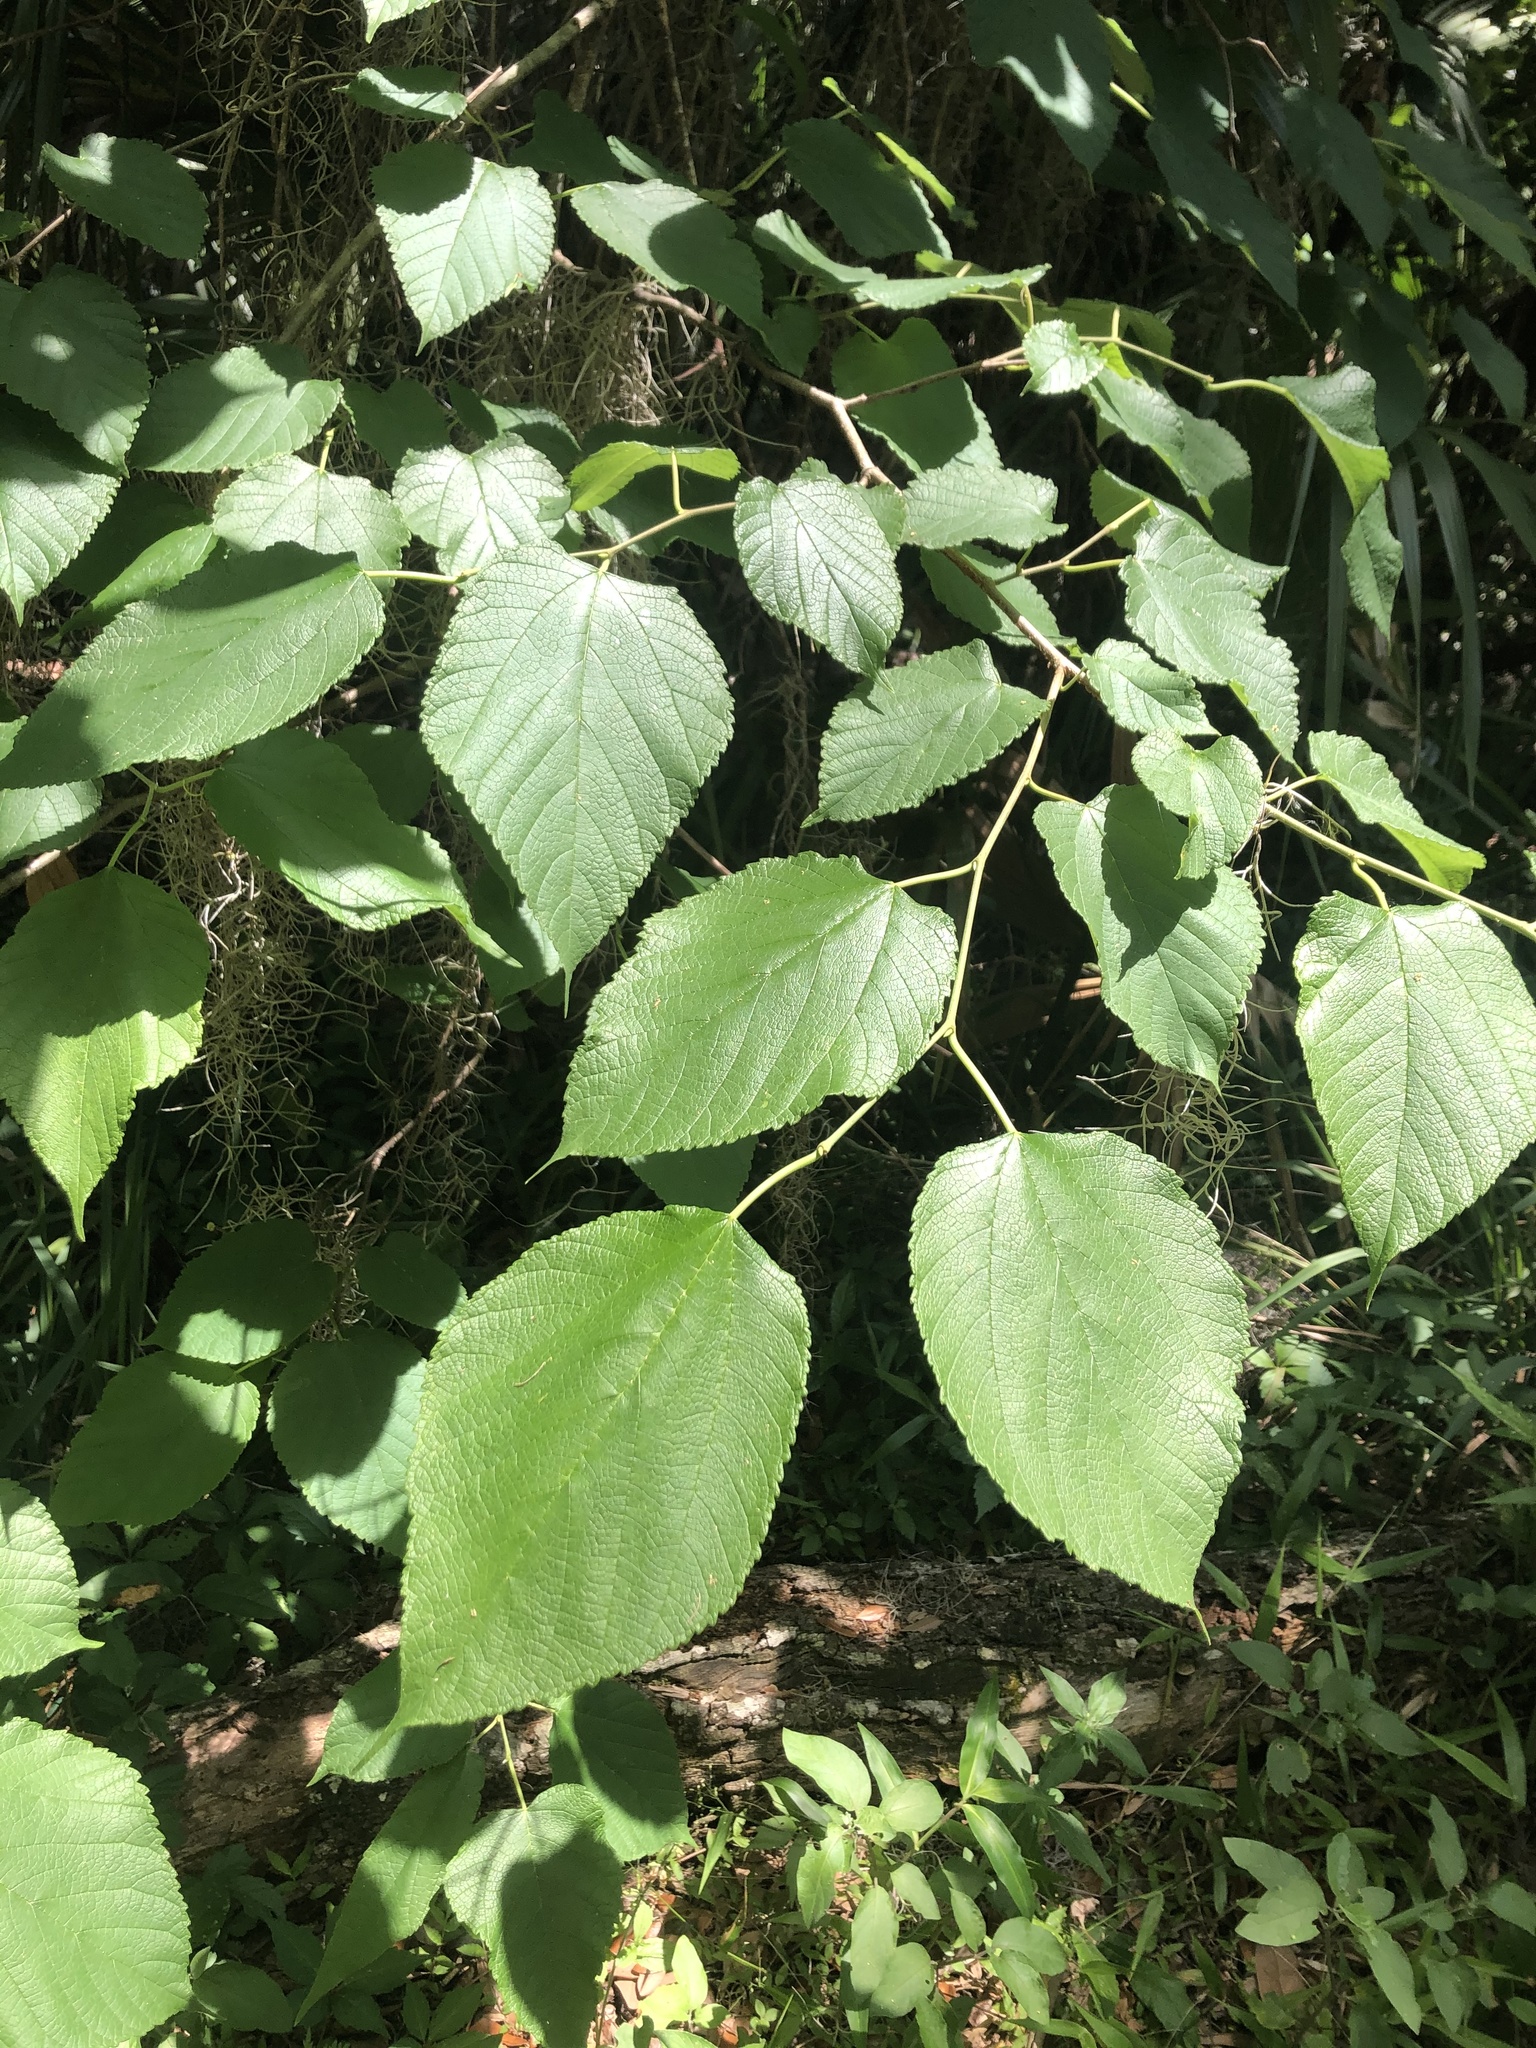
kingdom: Plantae
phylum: Tracheophyta
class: Magnoliopsida
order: Rosales
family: Moraceae
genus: Morus
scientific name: Morus rubra
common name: Red mulberry
